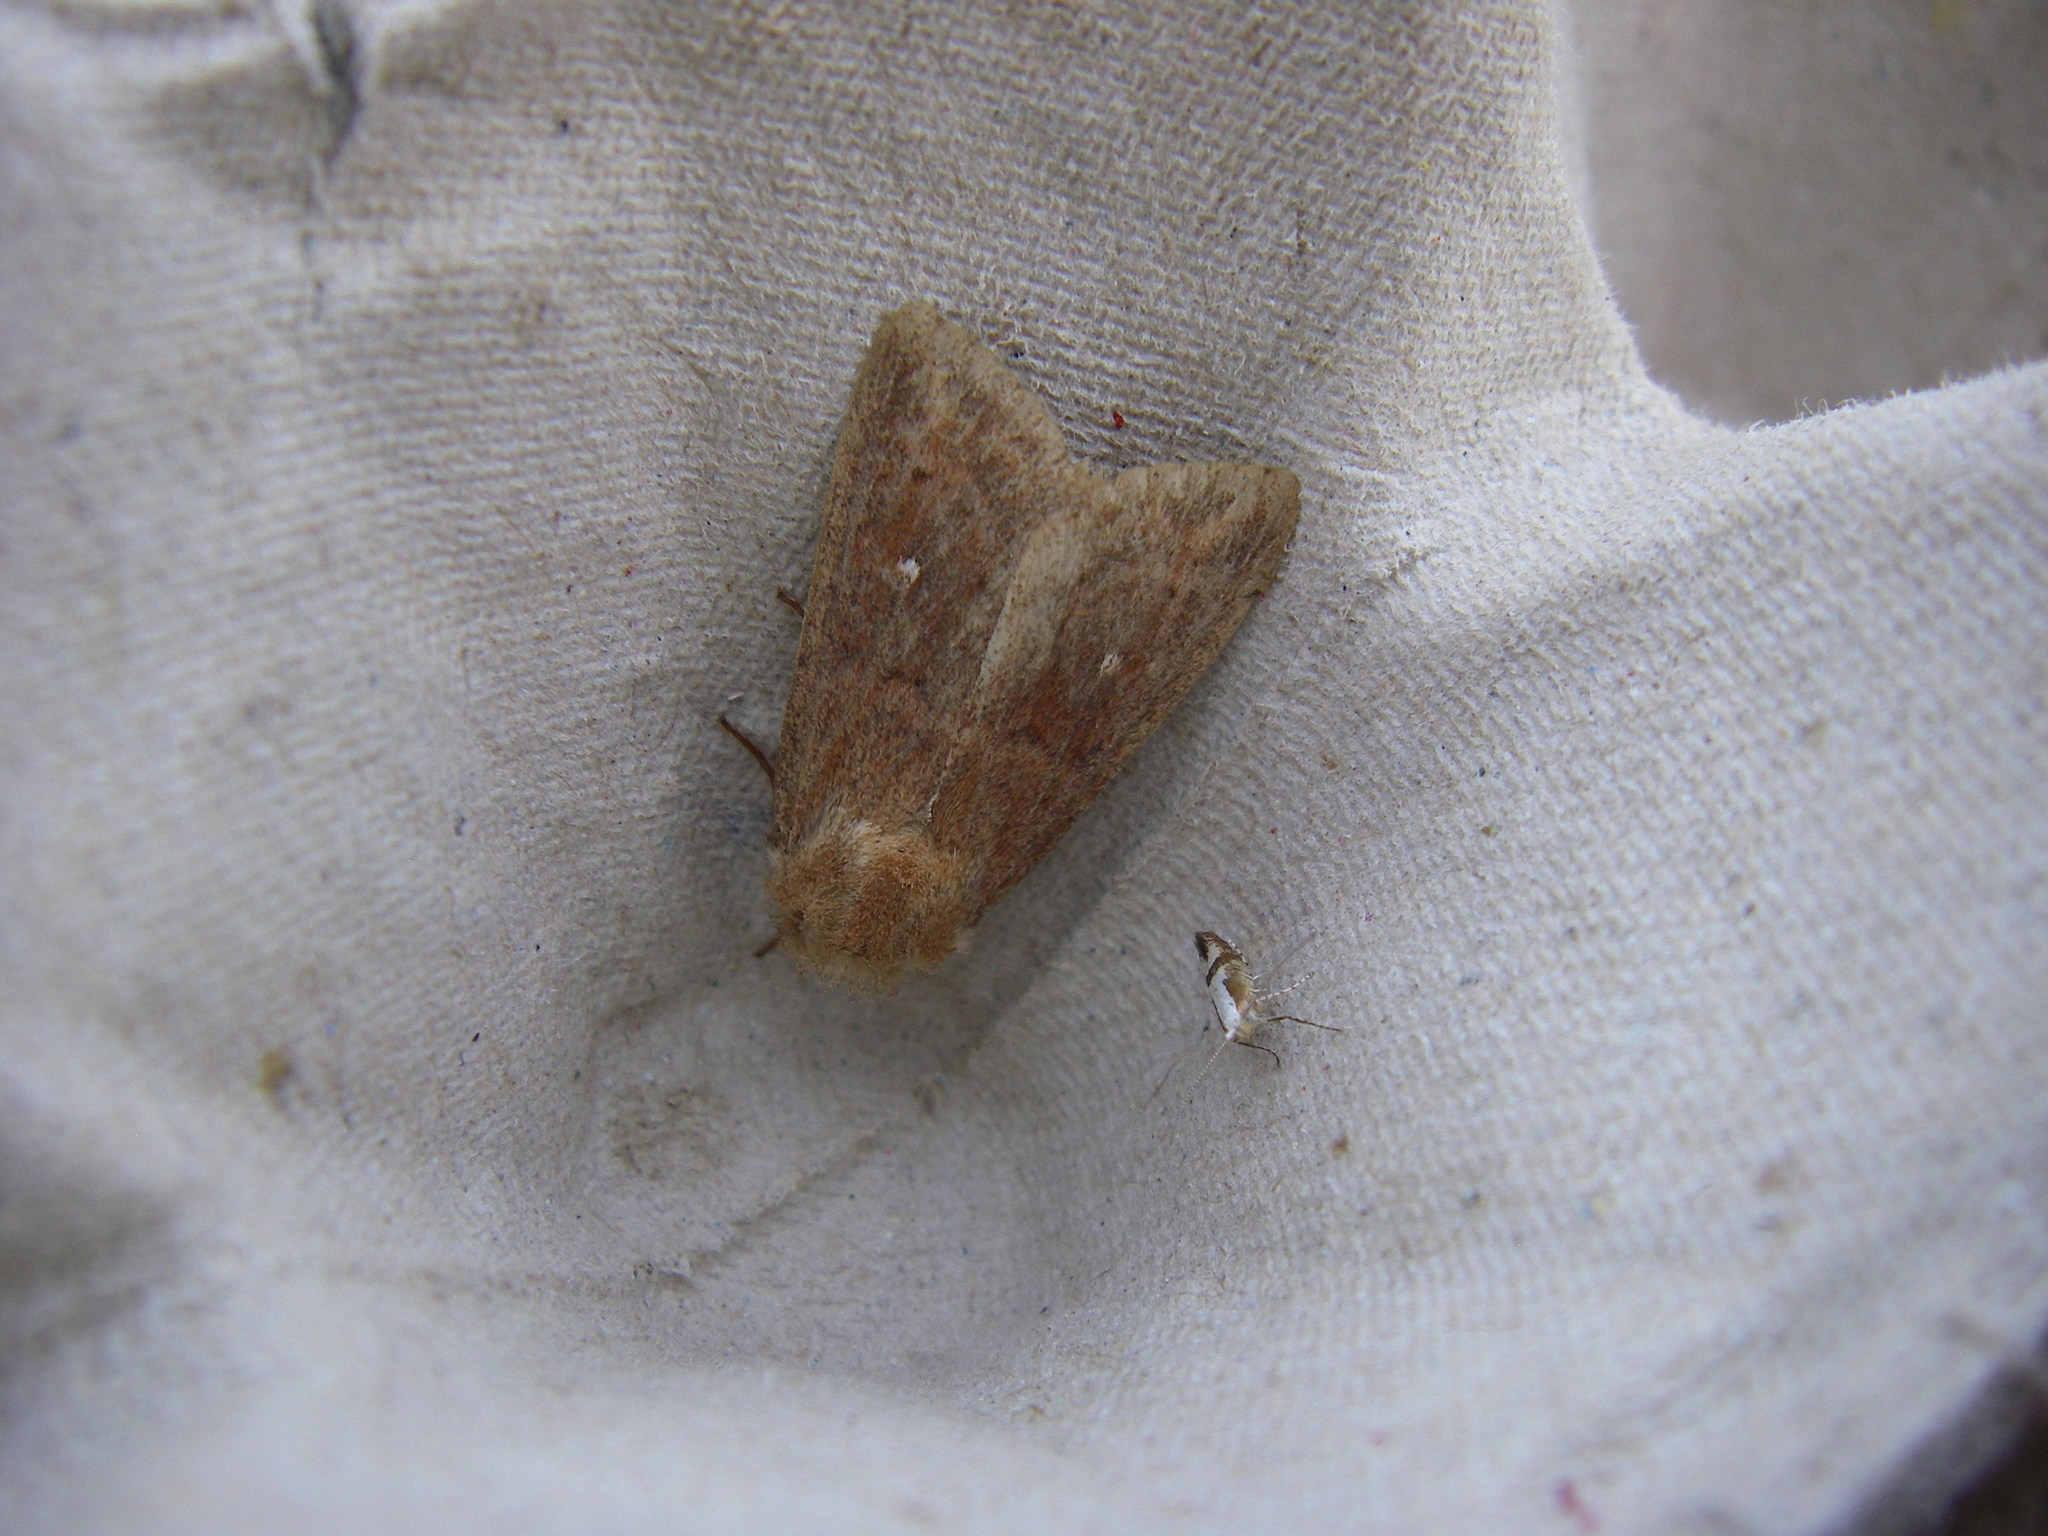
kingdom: Animalia
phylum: Arthropoda
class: Insecta
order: Lepidoptera
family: Noctuidae
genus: Mythimna
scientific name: Mythimna albipuncta
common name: White-point
